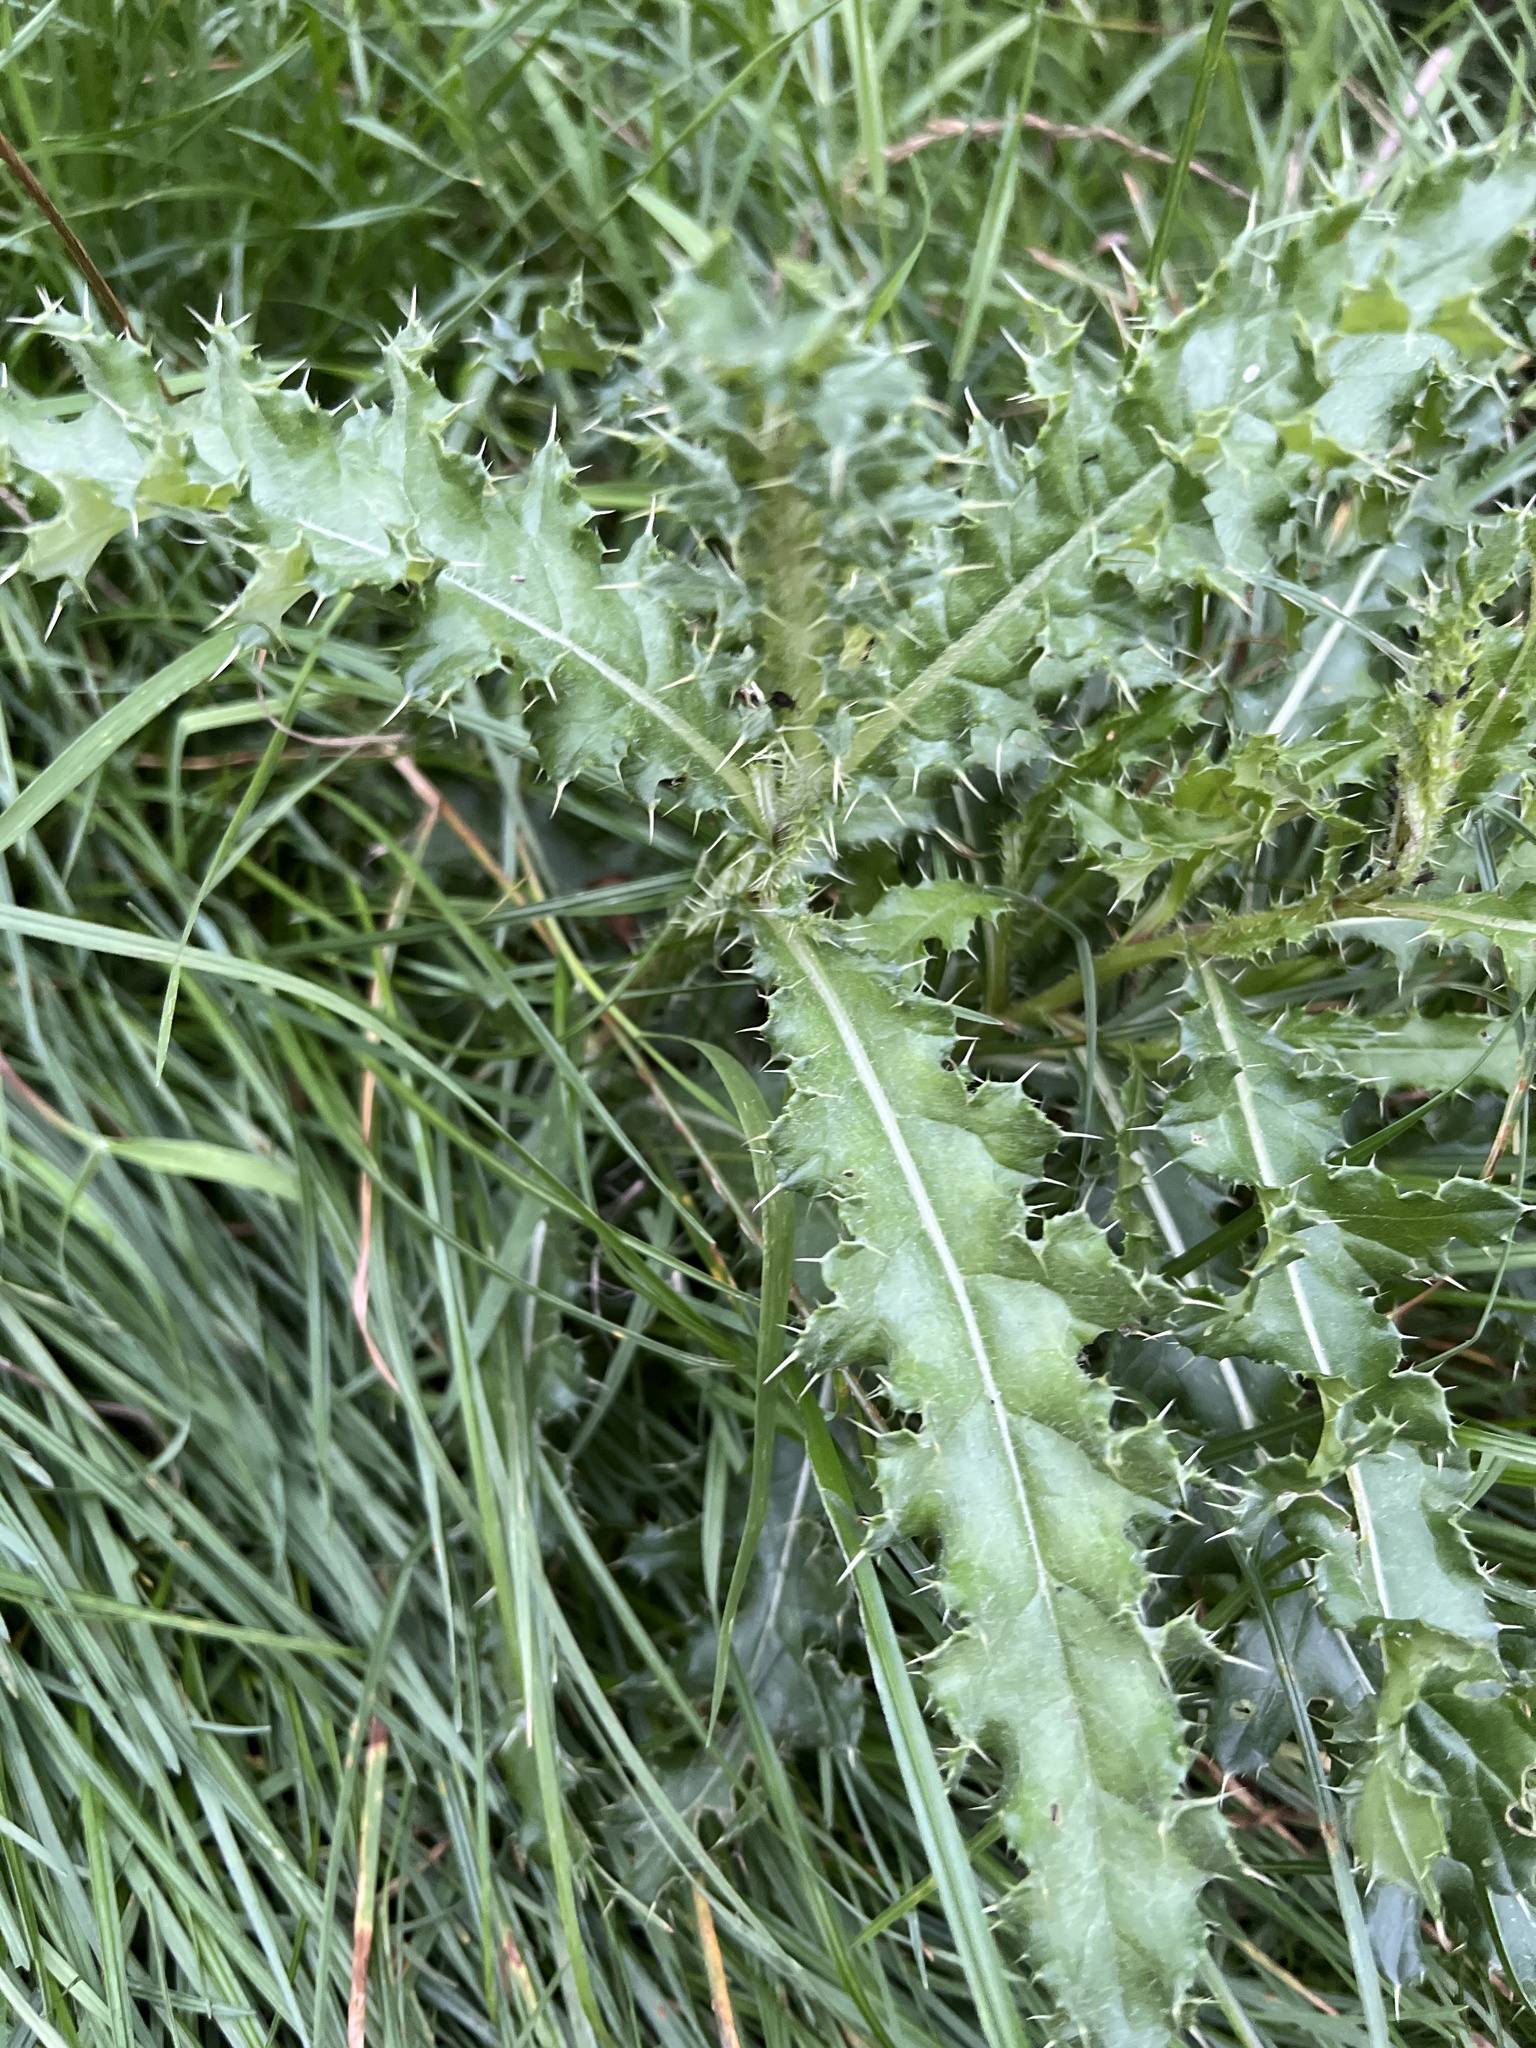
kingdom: Plantae
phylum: Tracheophyta
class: Magnoliopsida
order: Asterales
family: Asteraceae
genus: Cirsium
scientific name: Cirsium arvense
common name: Creeping thistle
